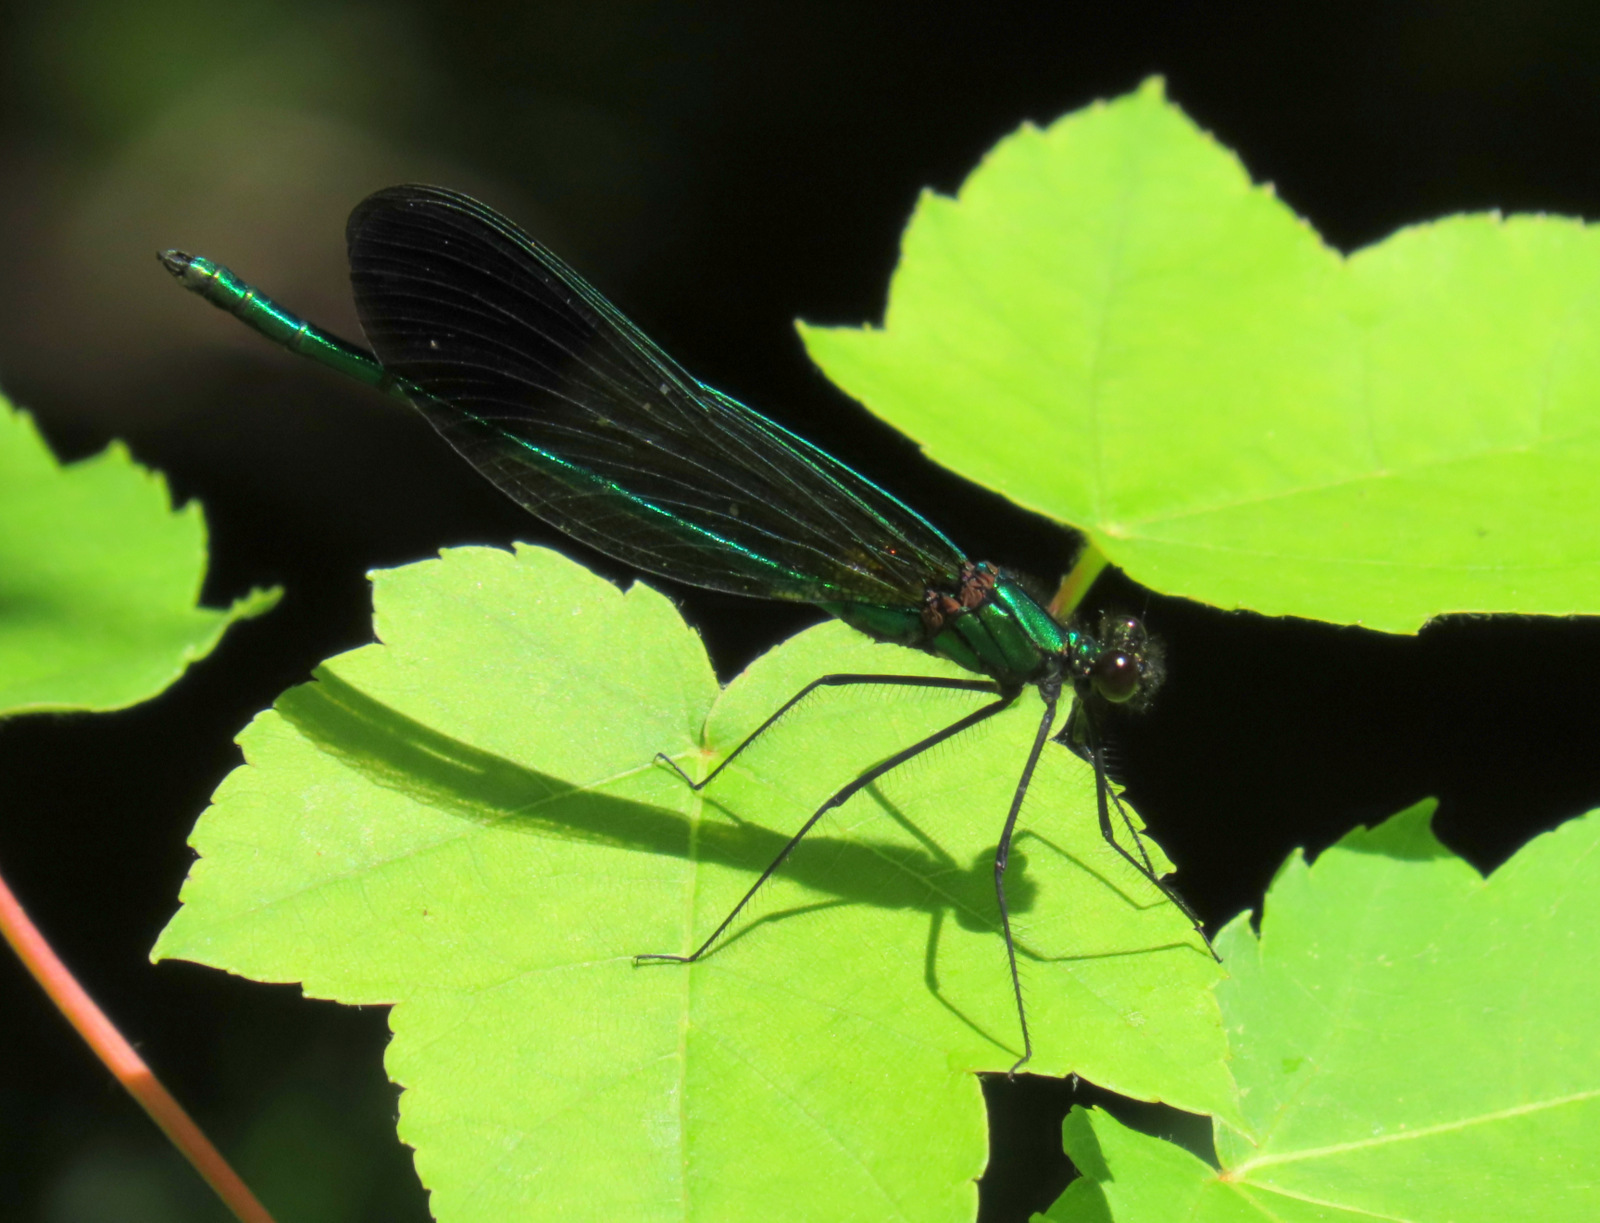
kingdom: Animalia
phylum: Arthropoda
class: Insecta
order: Odonata
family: Calopterygidae
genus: Calopteryx
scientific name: Calopteryx aequabilis
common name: River jewelwing
